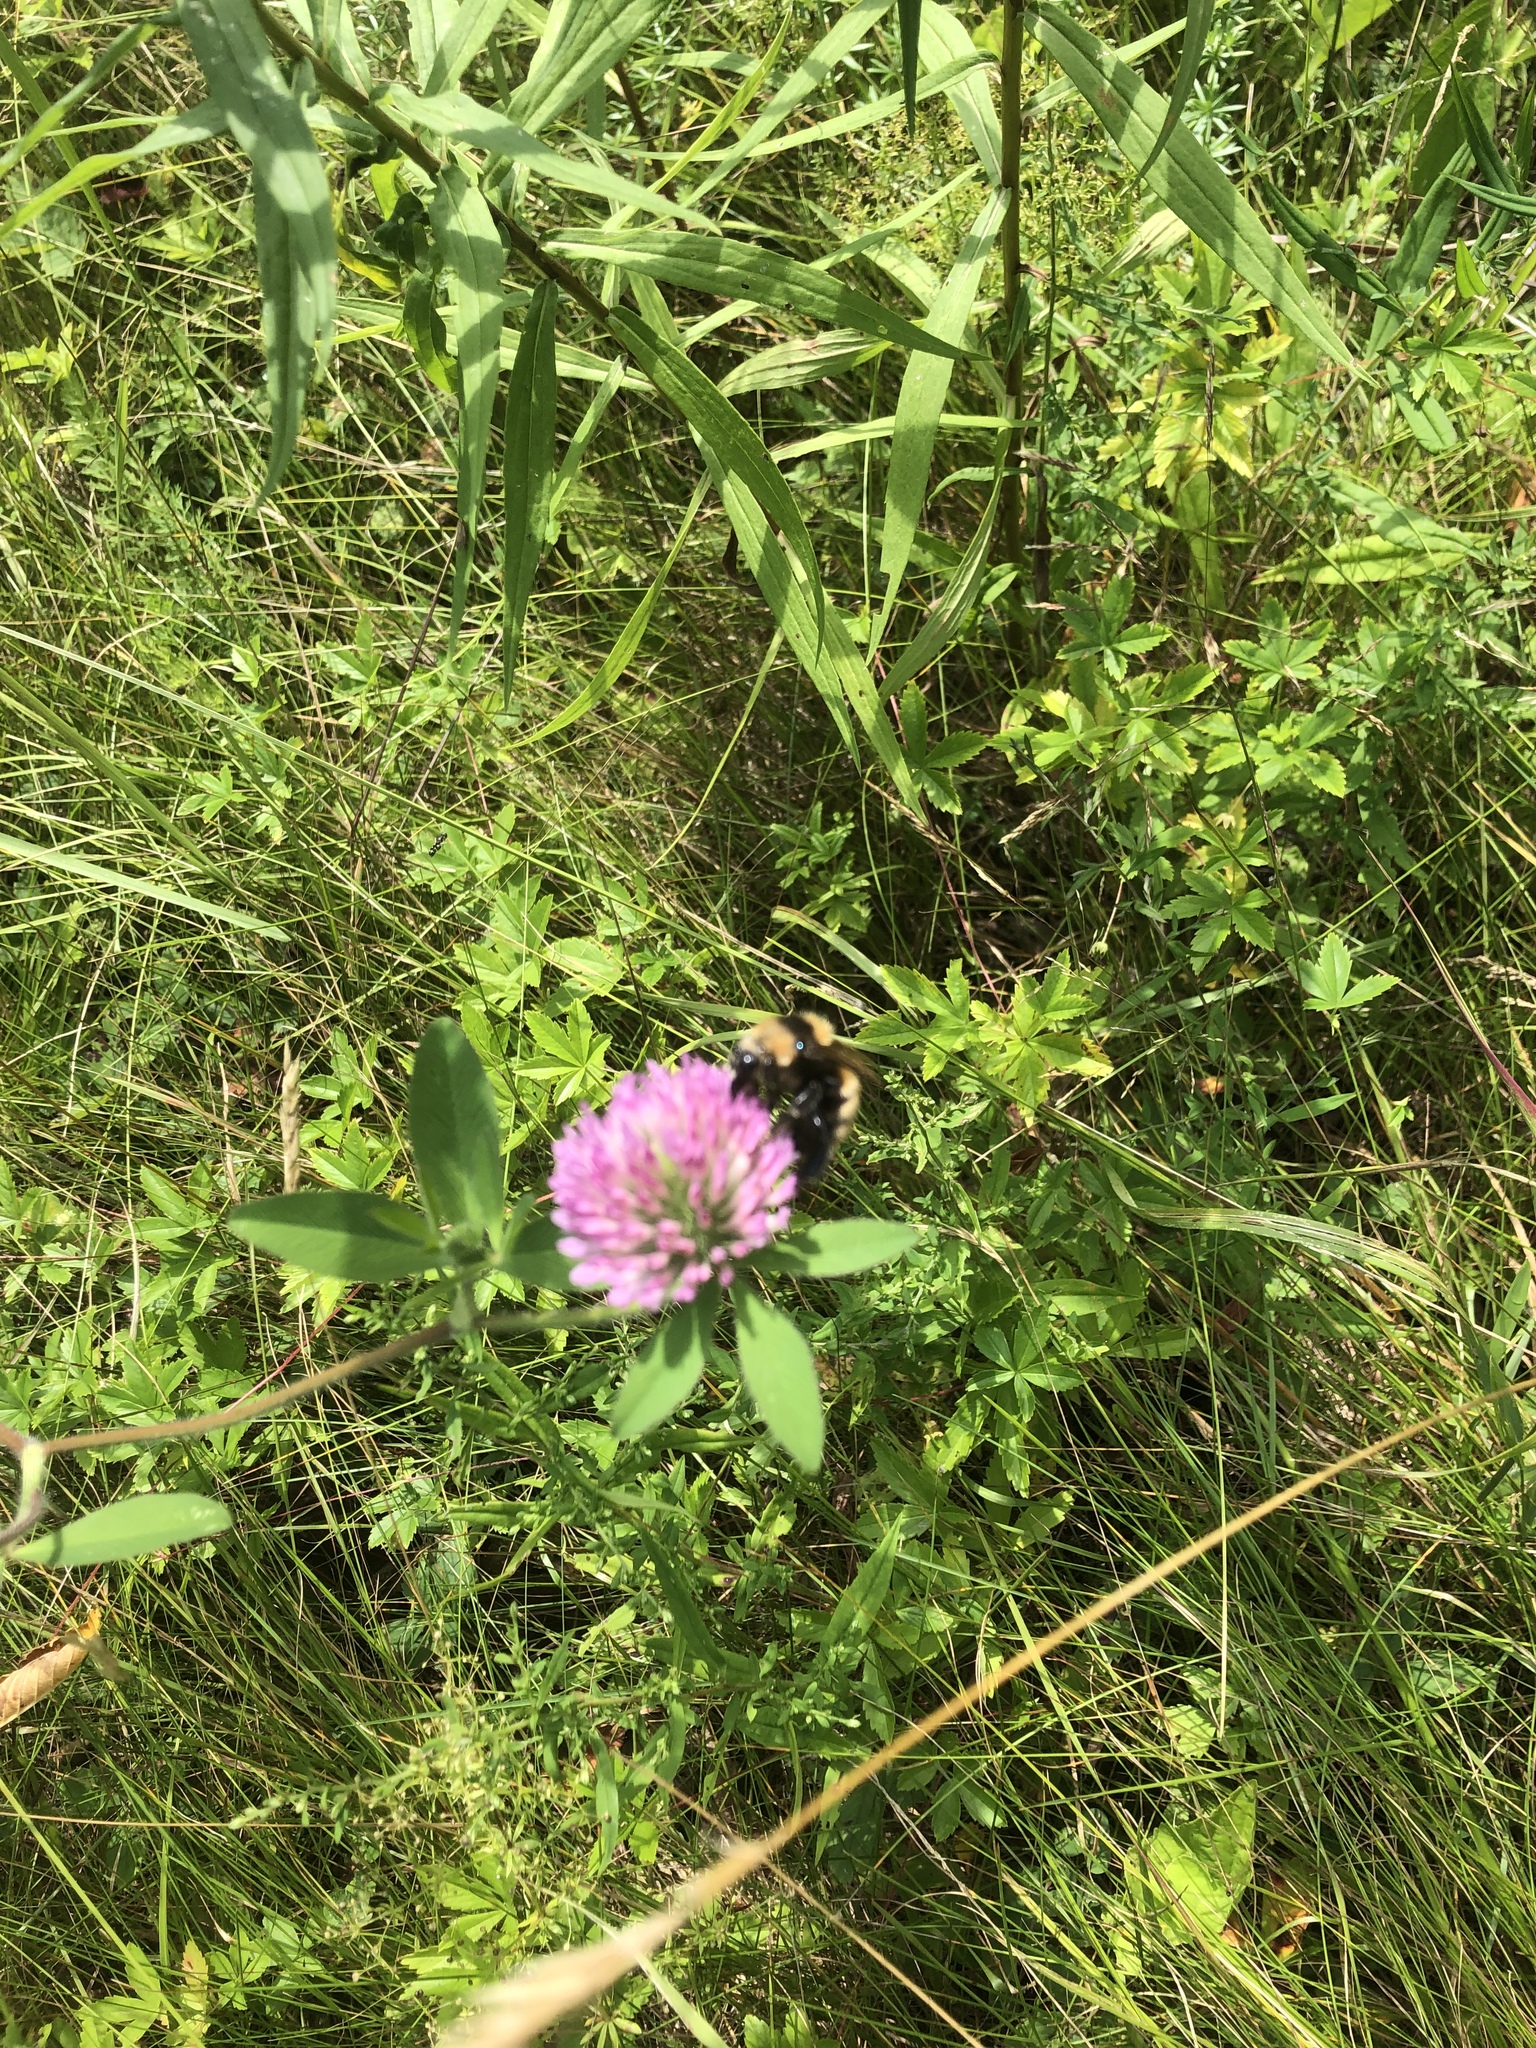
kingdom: Animalia
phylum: Arthropoda
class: Insecta
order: Hymenoptera
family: Apidae
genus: Bombus
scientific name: Bombus borealis
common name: Northern amber bumble bee
